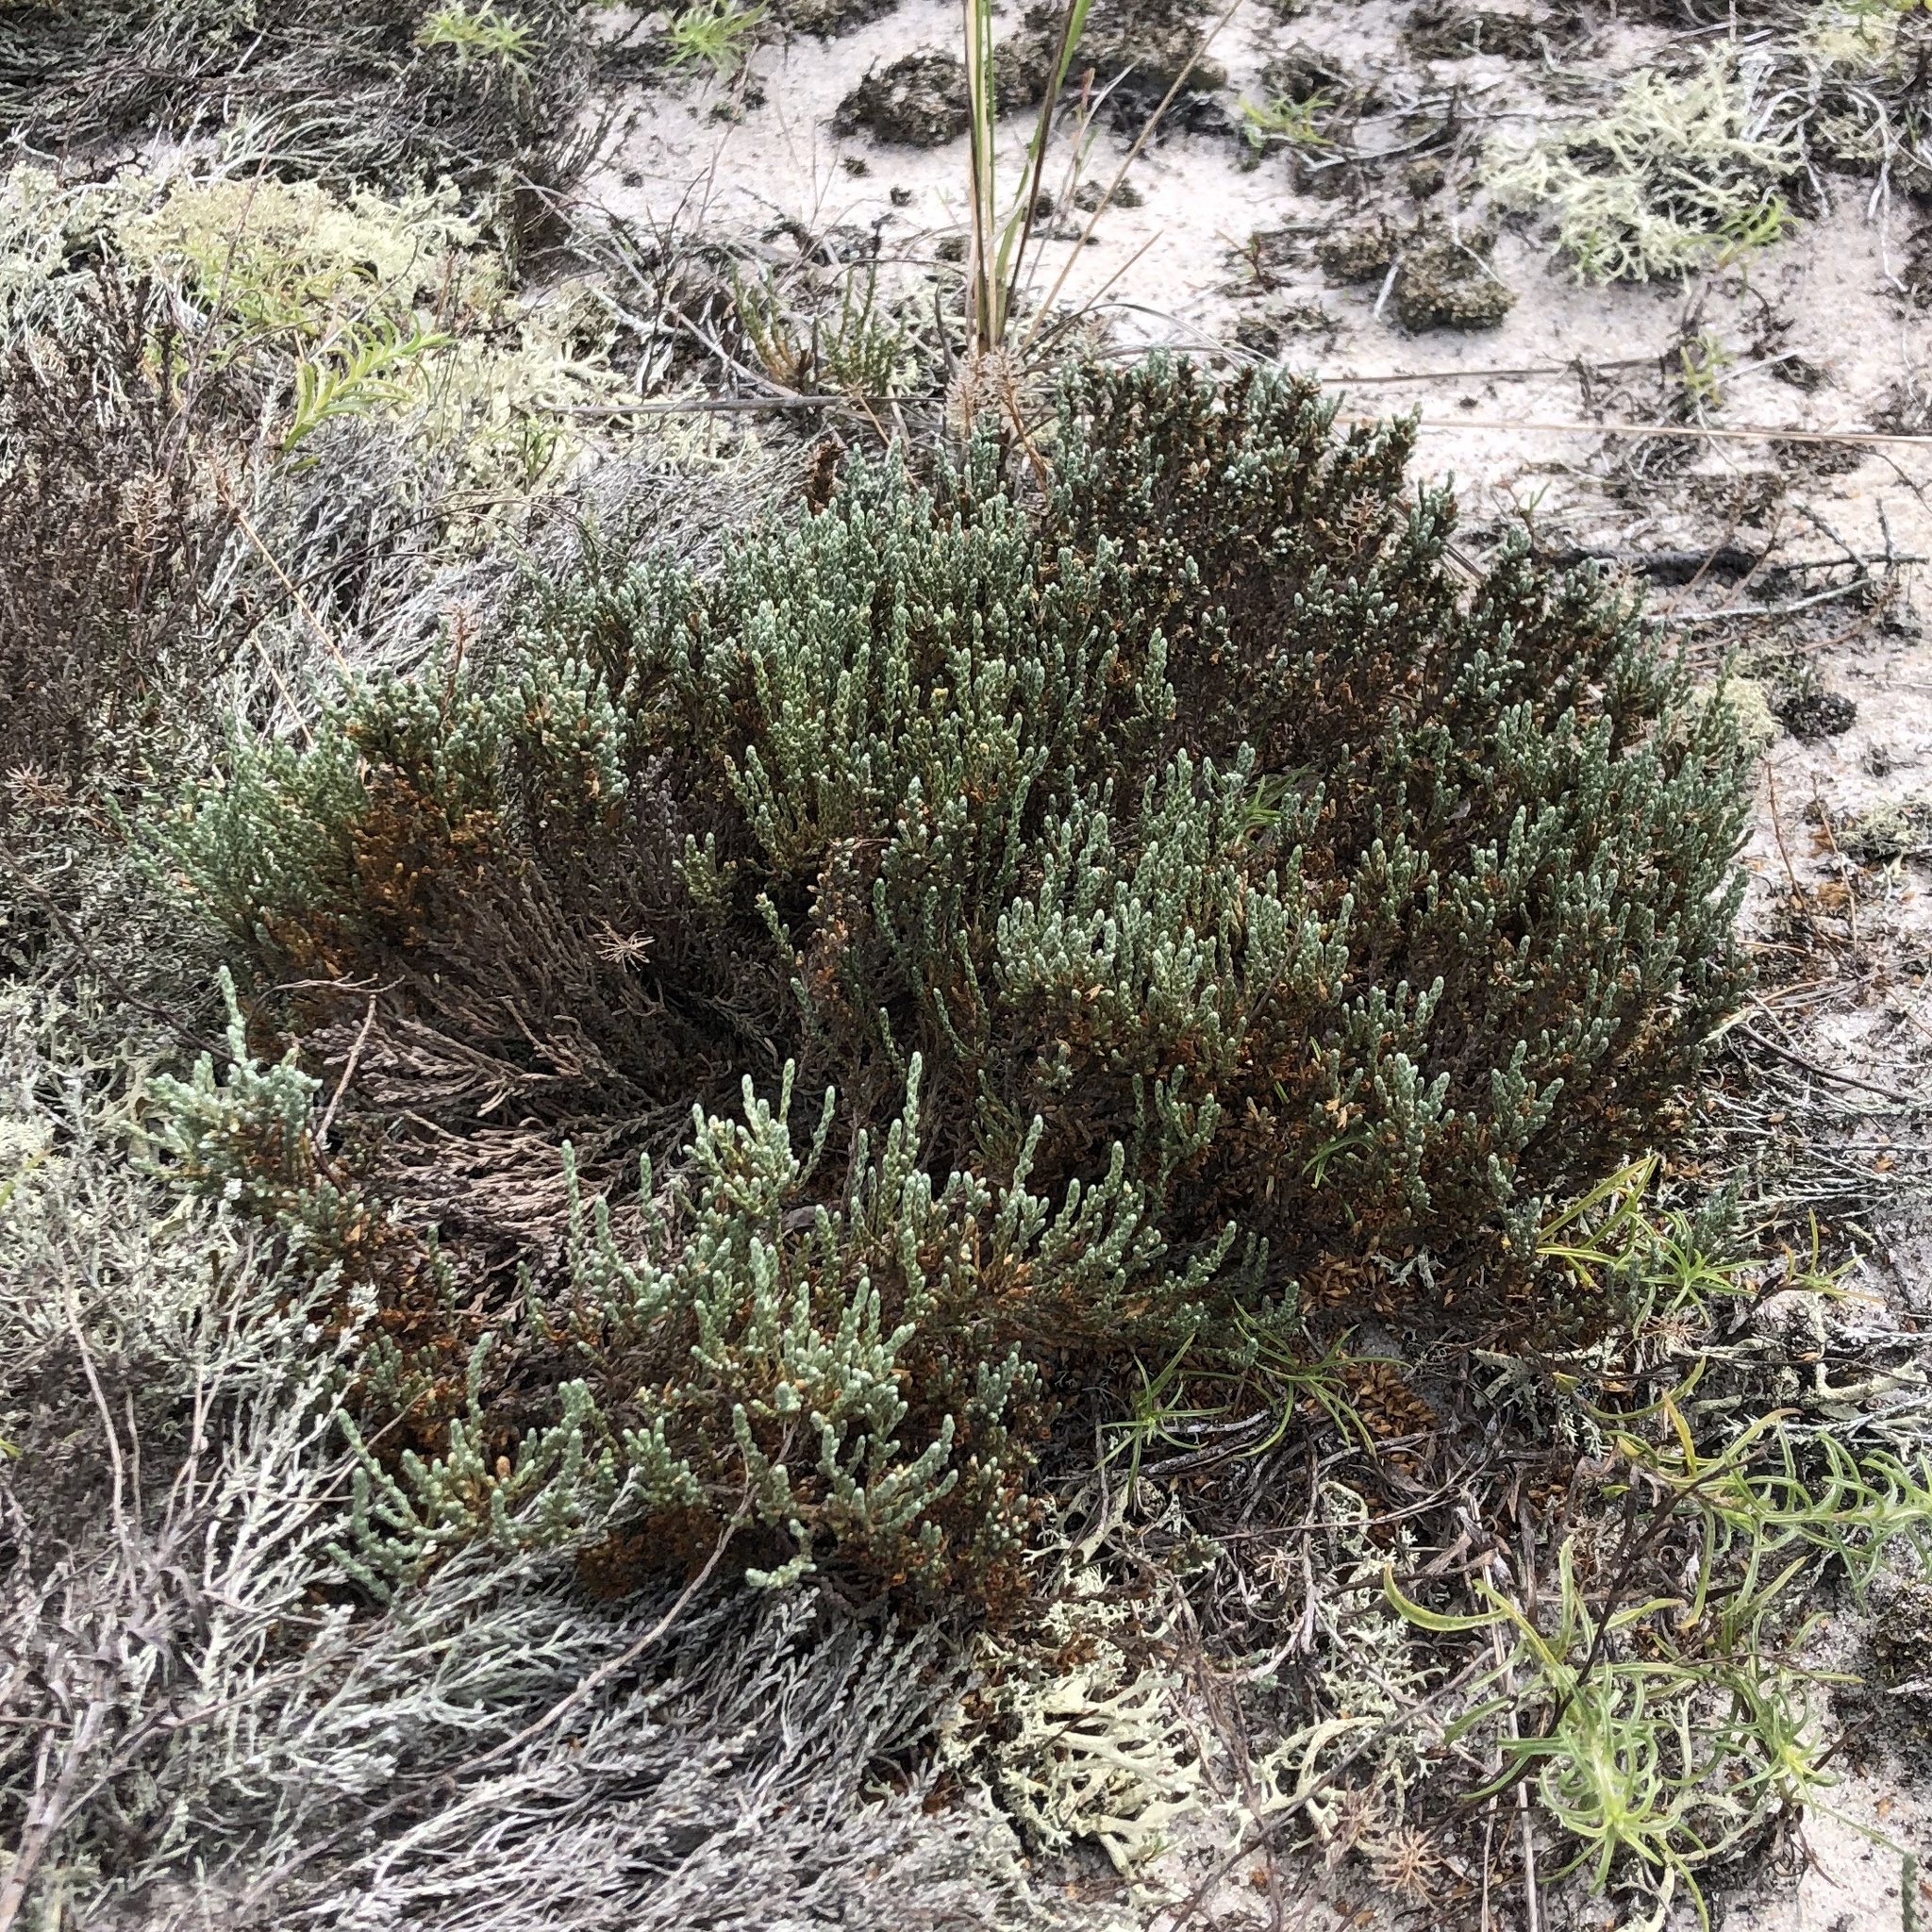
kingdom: Plantae
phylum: Tracheophyta
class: Magnoliopsida
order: Malvales
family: Cistaceae
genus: Hudsonia
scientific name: Hudsonia tomentosa
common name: Beach-heath
